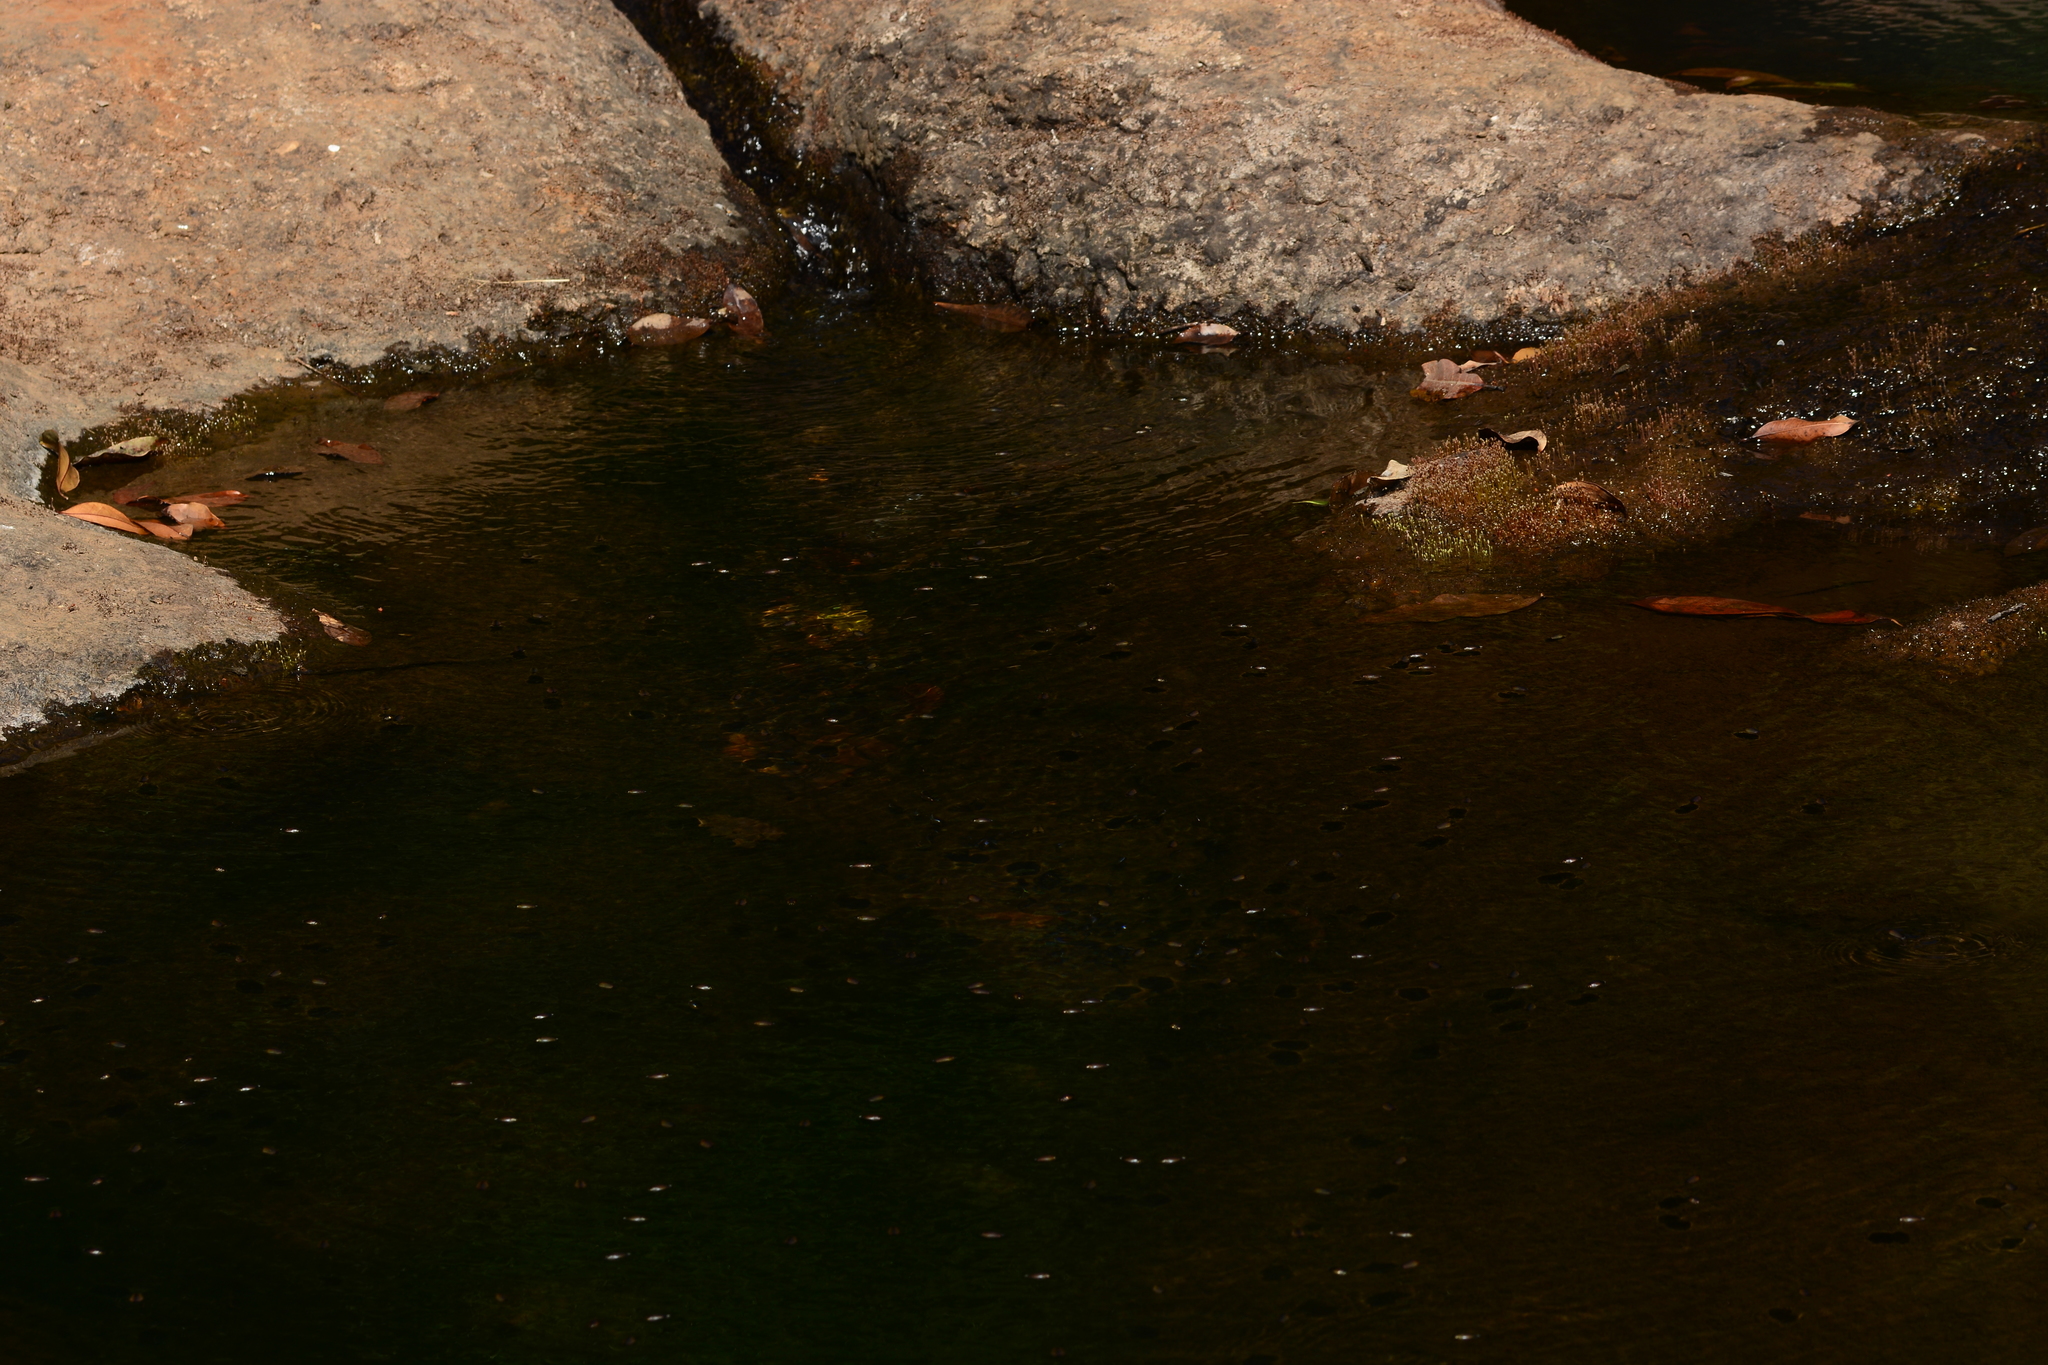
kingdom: Plantae
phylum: Tracheophyta
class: Magnoliopsida
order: Malpighiales
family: Podostemaceae
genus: Dalzellia
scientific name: Dalzellia ceylanica
